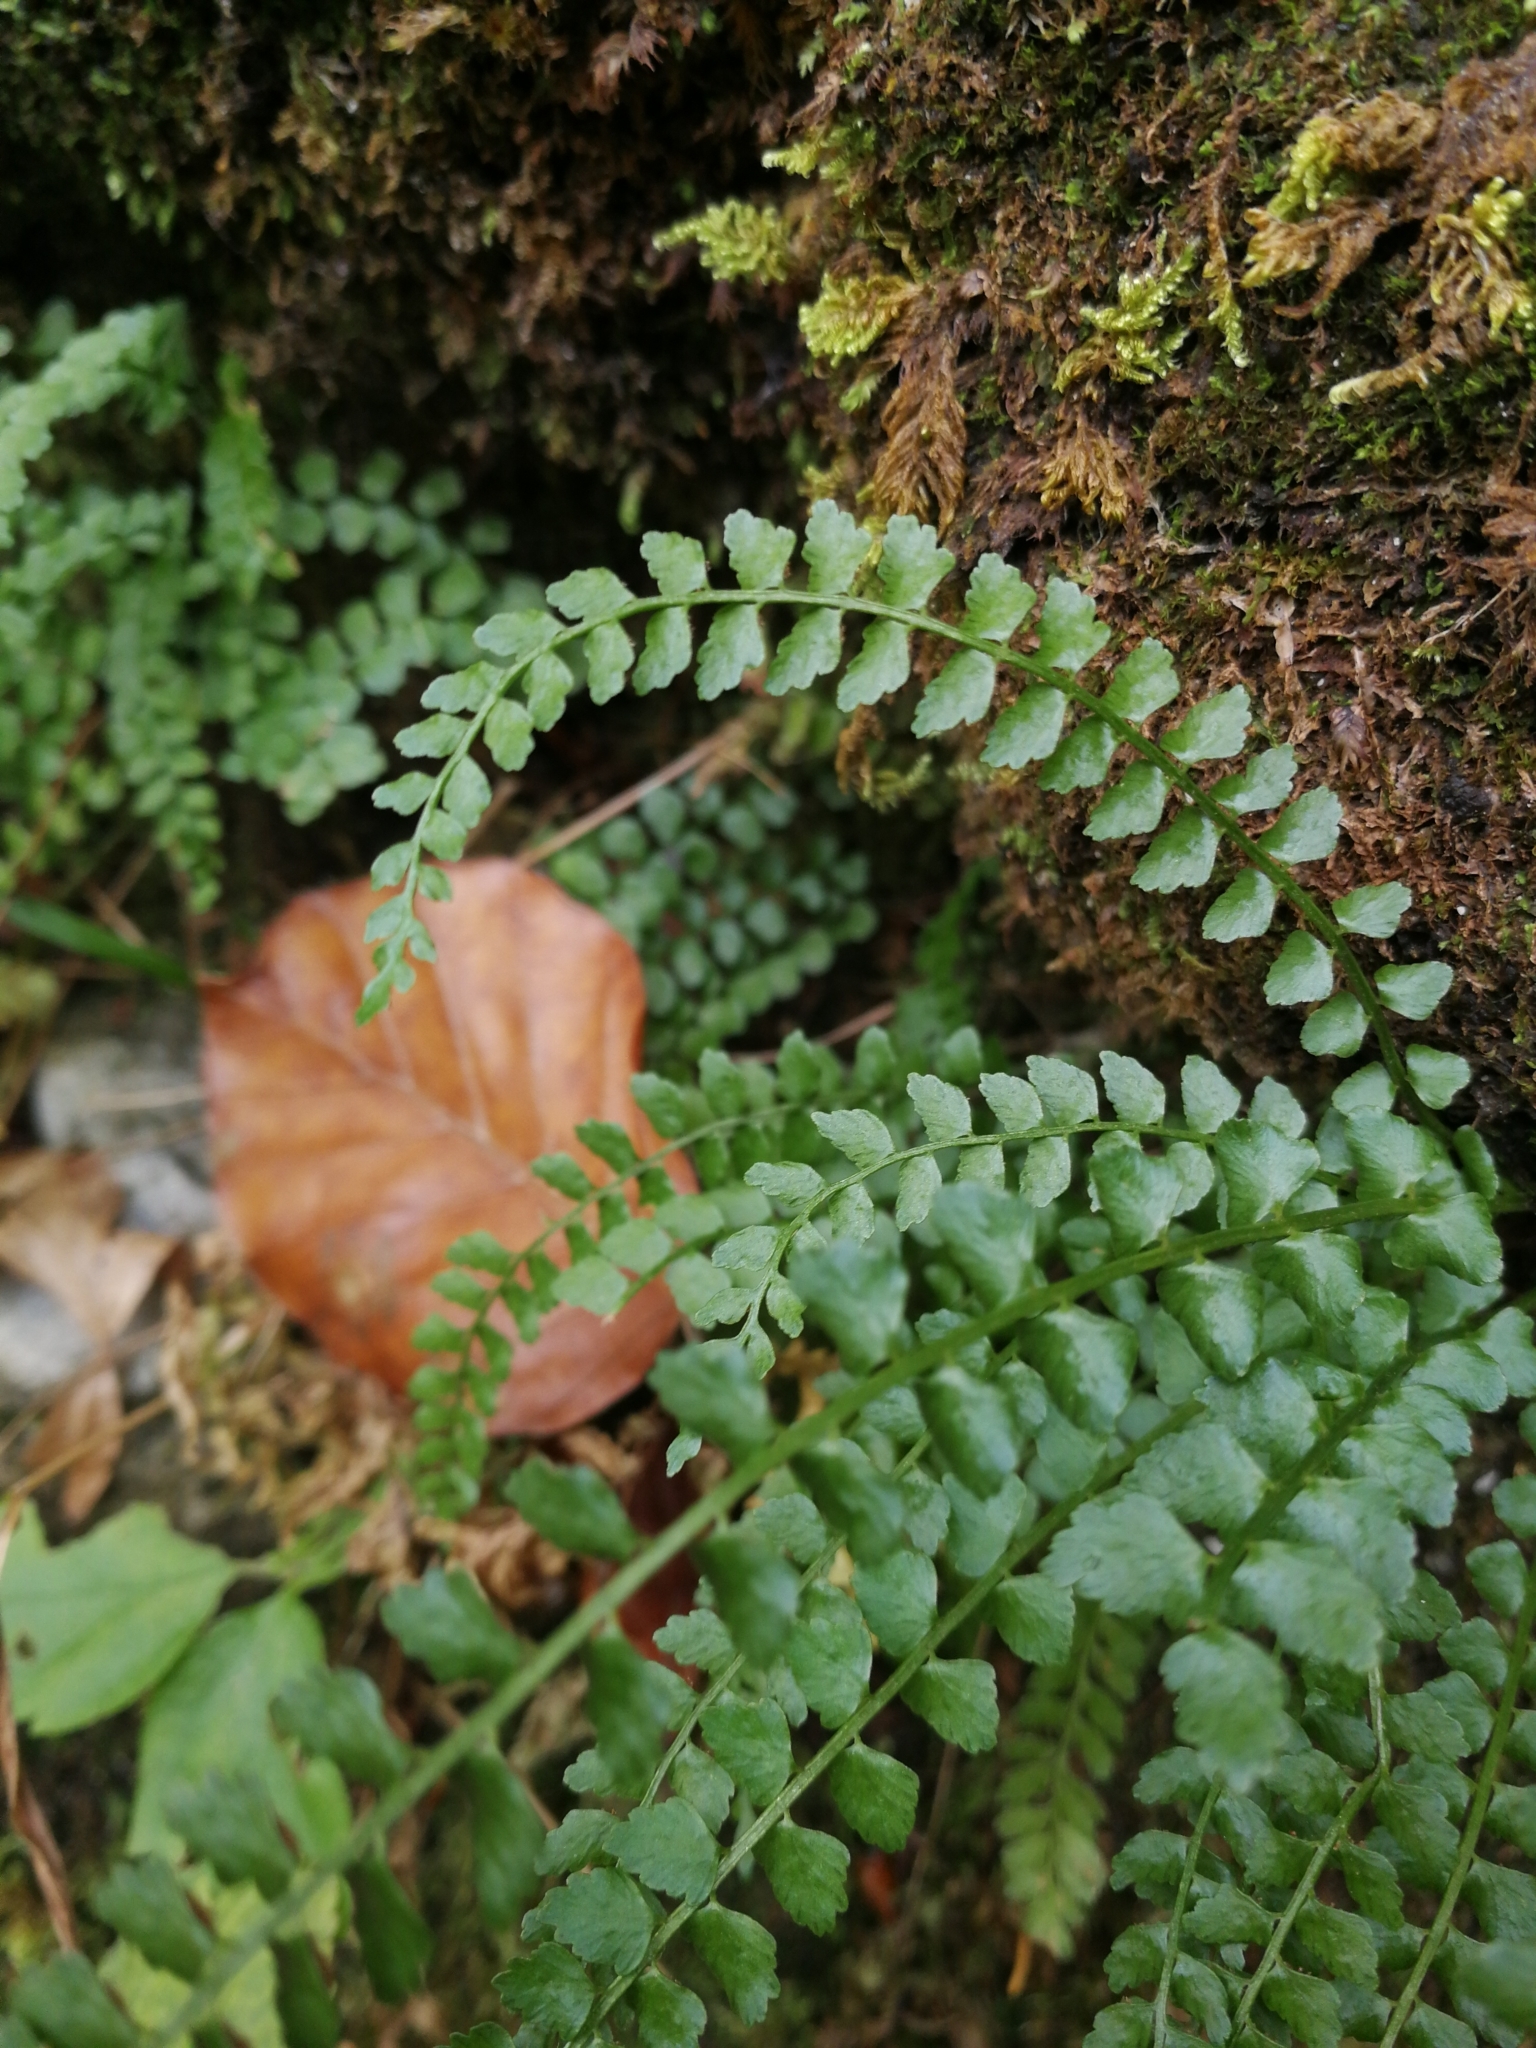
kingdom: Plantae
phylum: Tracheophyta
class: Polypodiopsida
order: Polypodiales
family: Aspleniaceae
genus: Asplenium
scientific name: Asplenium viride
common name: Green spleenwort
